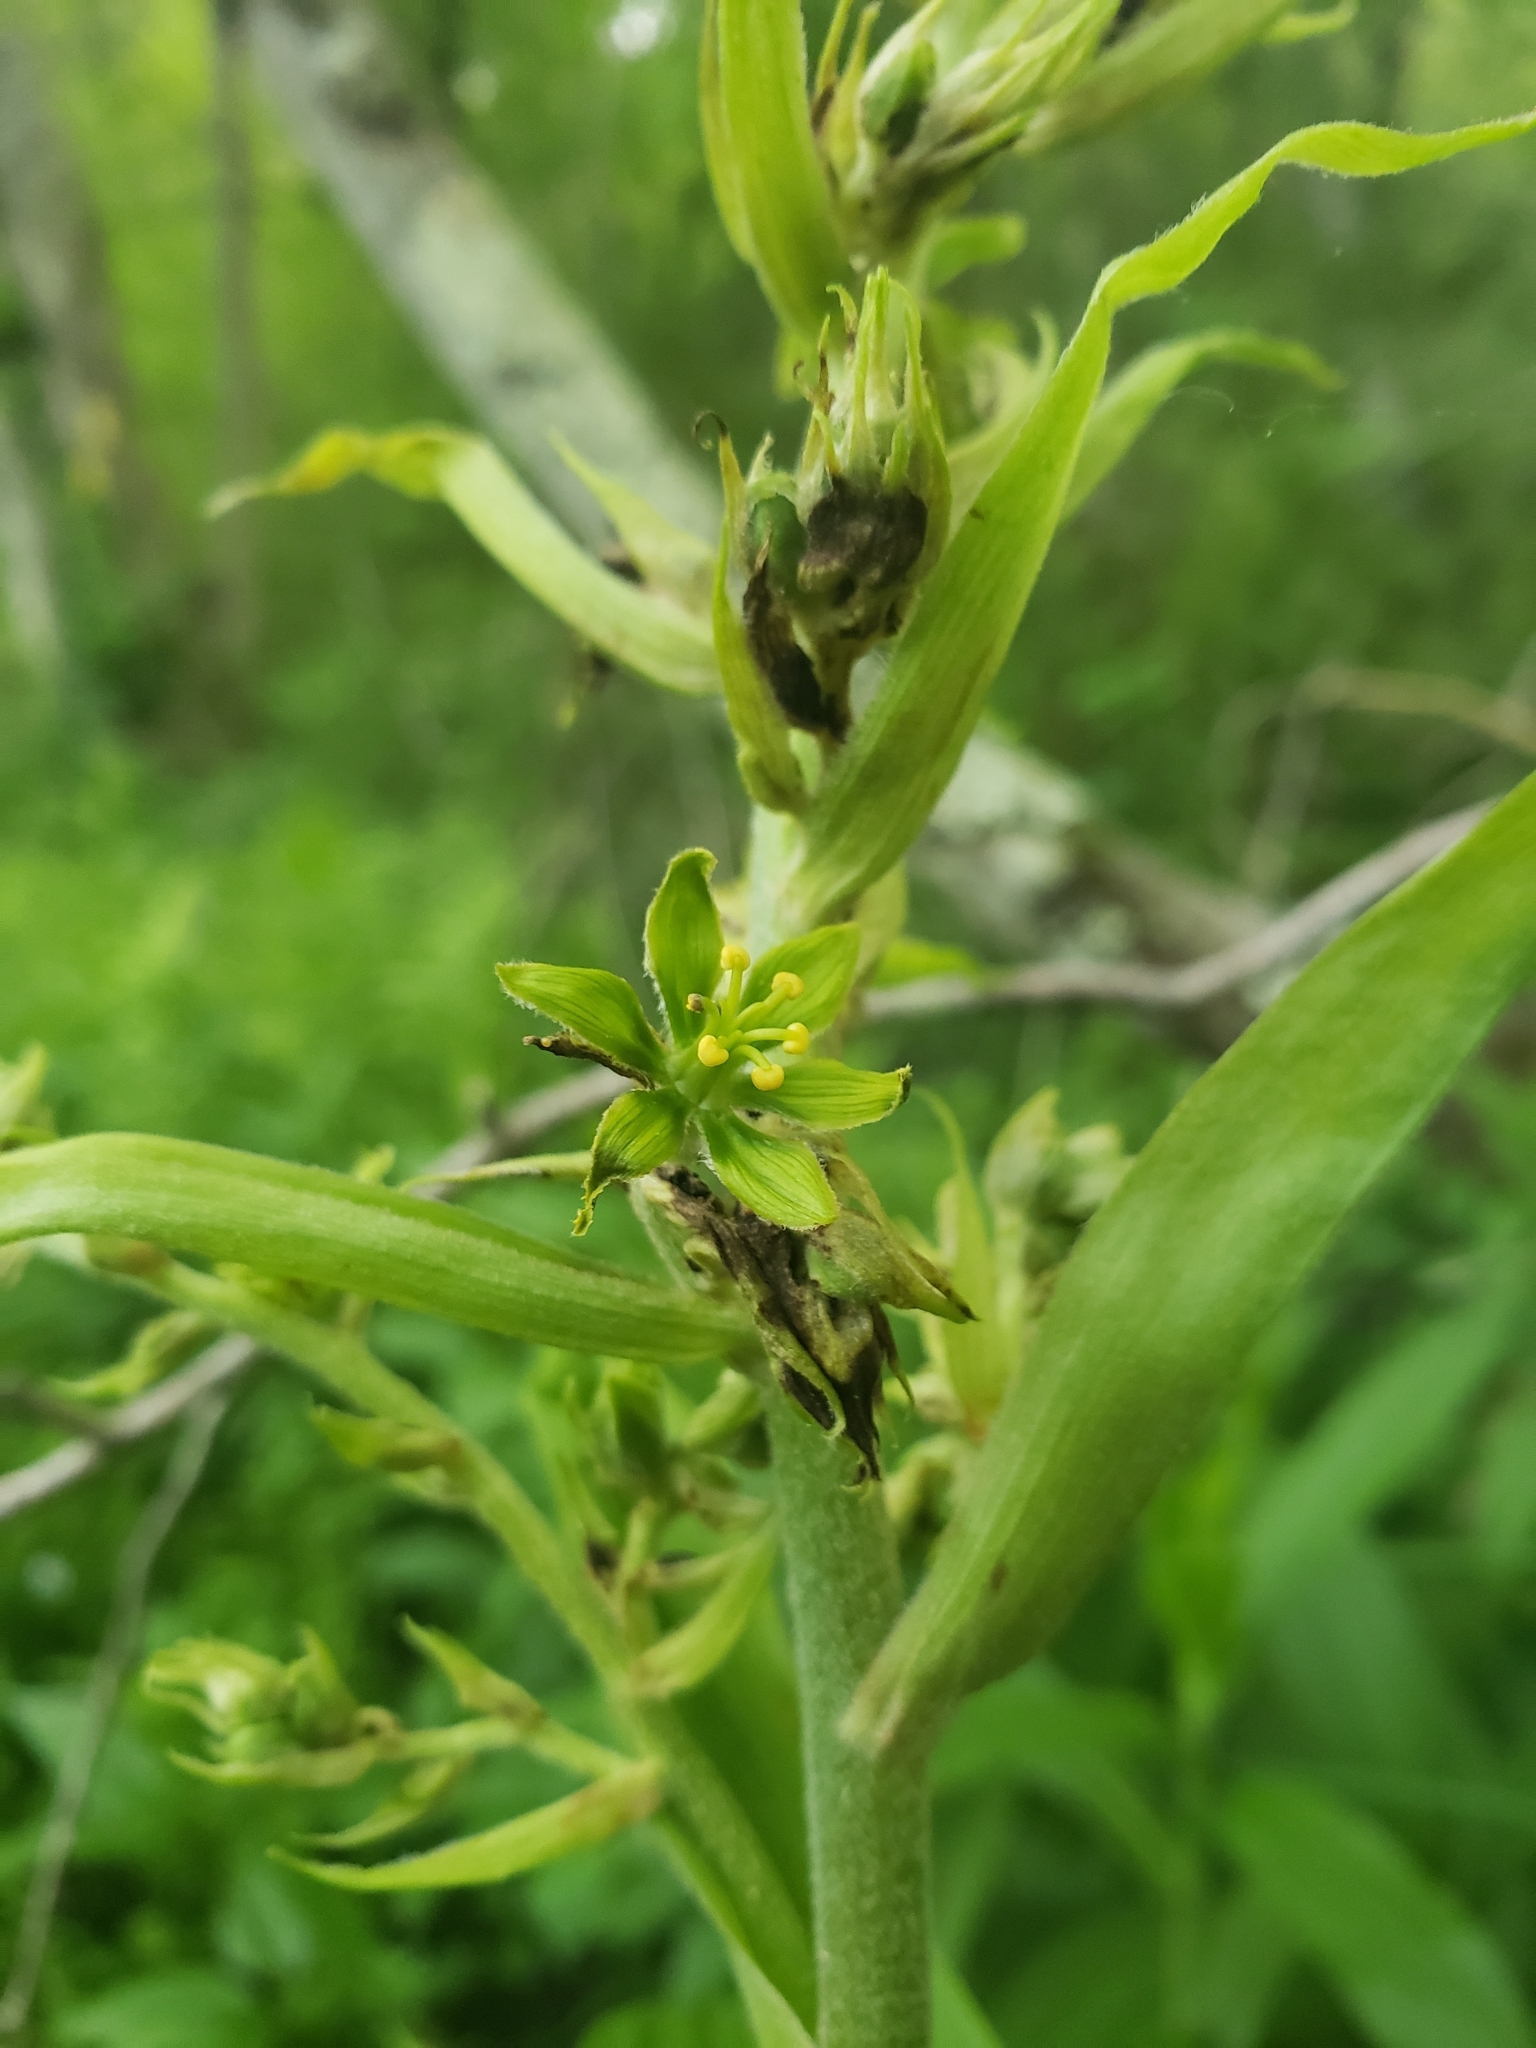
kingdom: Plantae
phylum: Tracheophyta
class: Liliopsida
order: Liliales
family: Melanthiaceae
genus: Veratrum
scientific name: Veratrum viride
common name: American false hellebore
